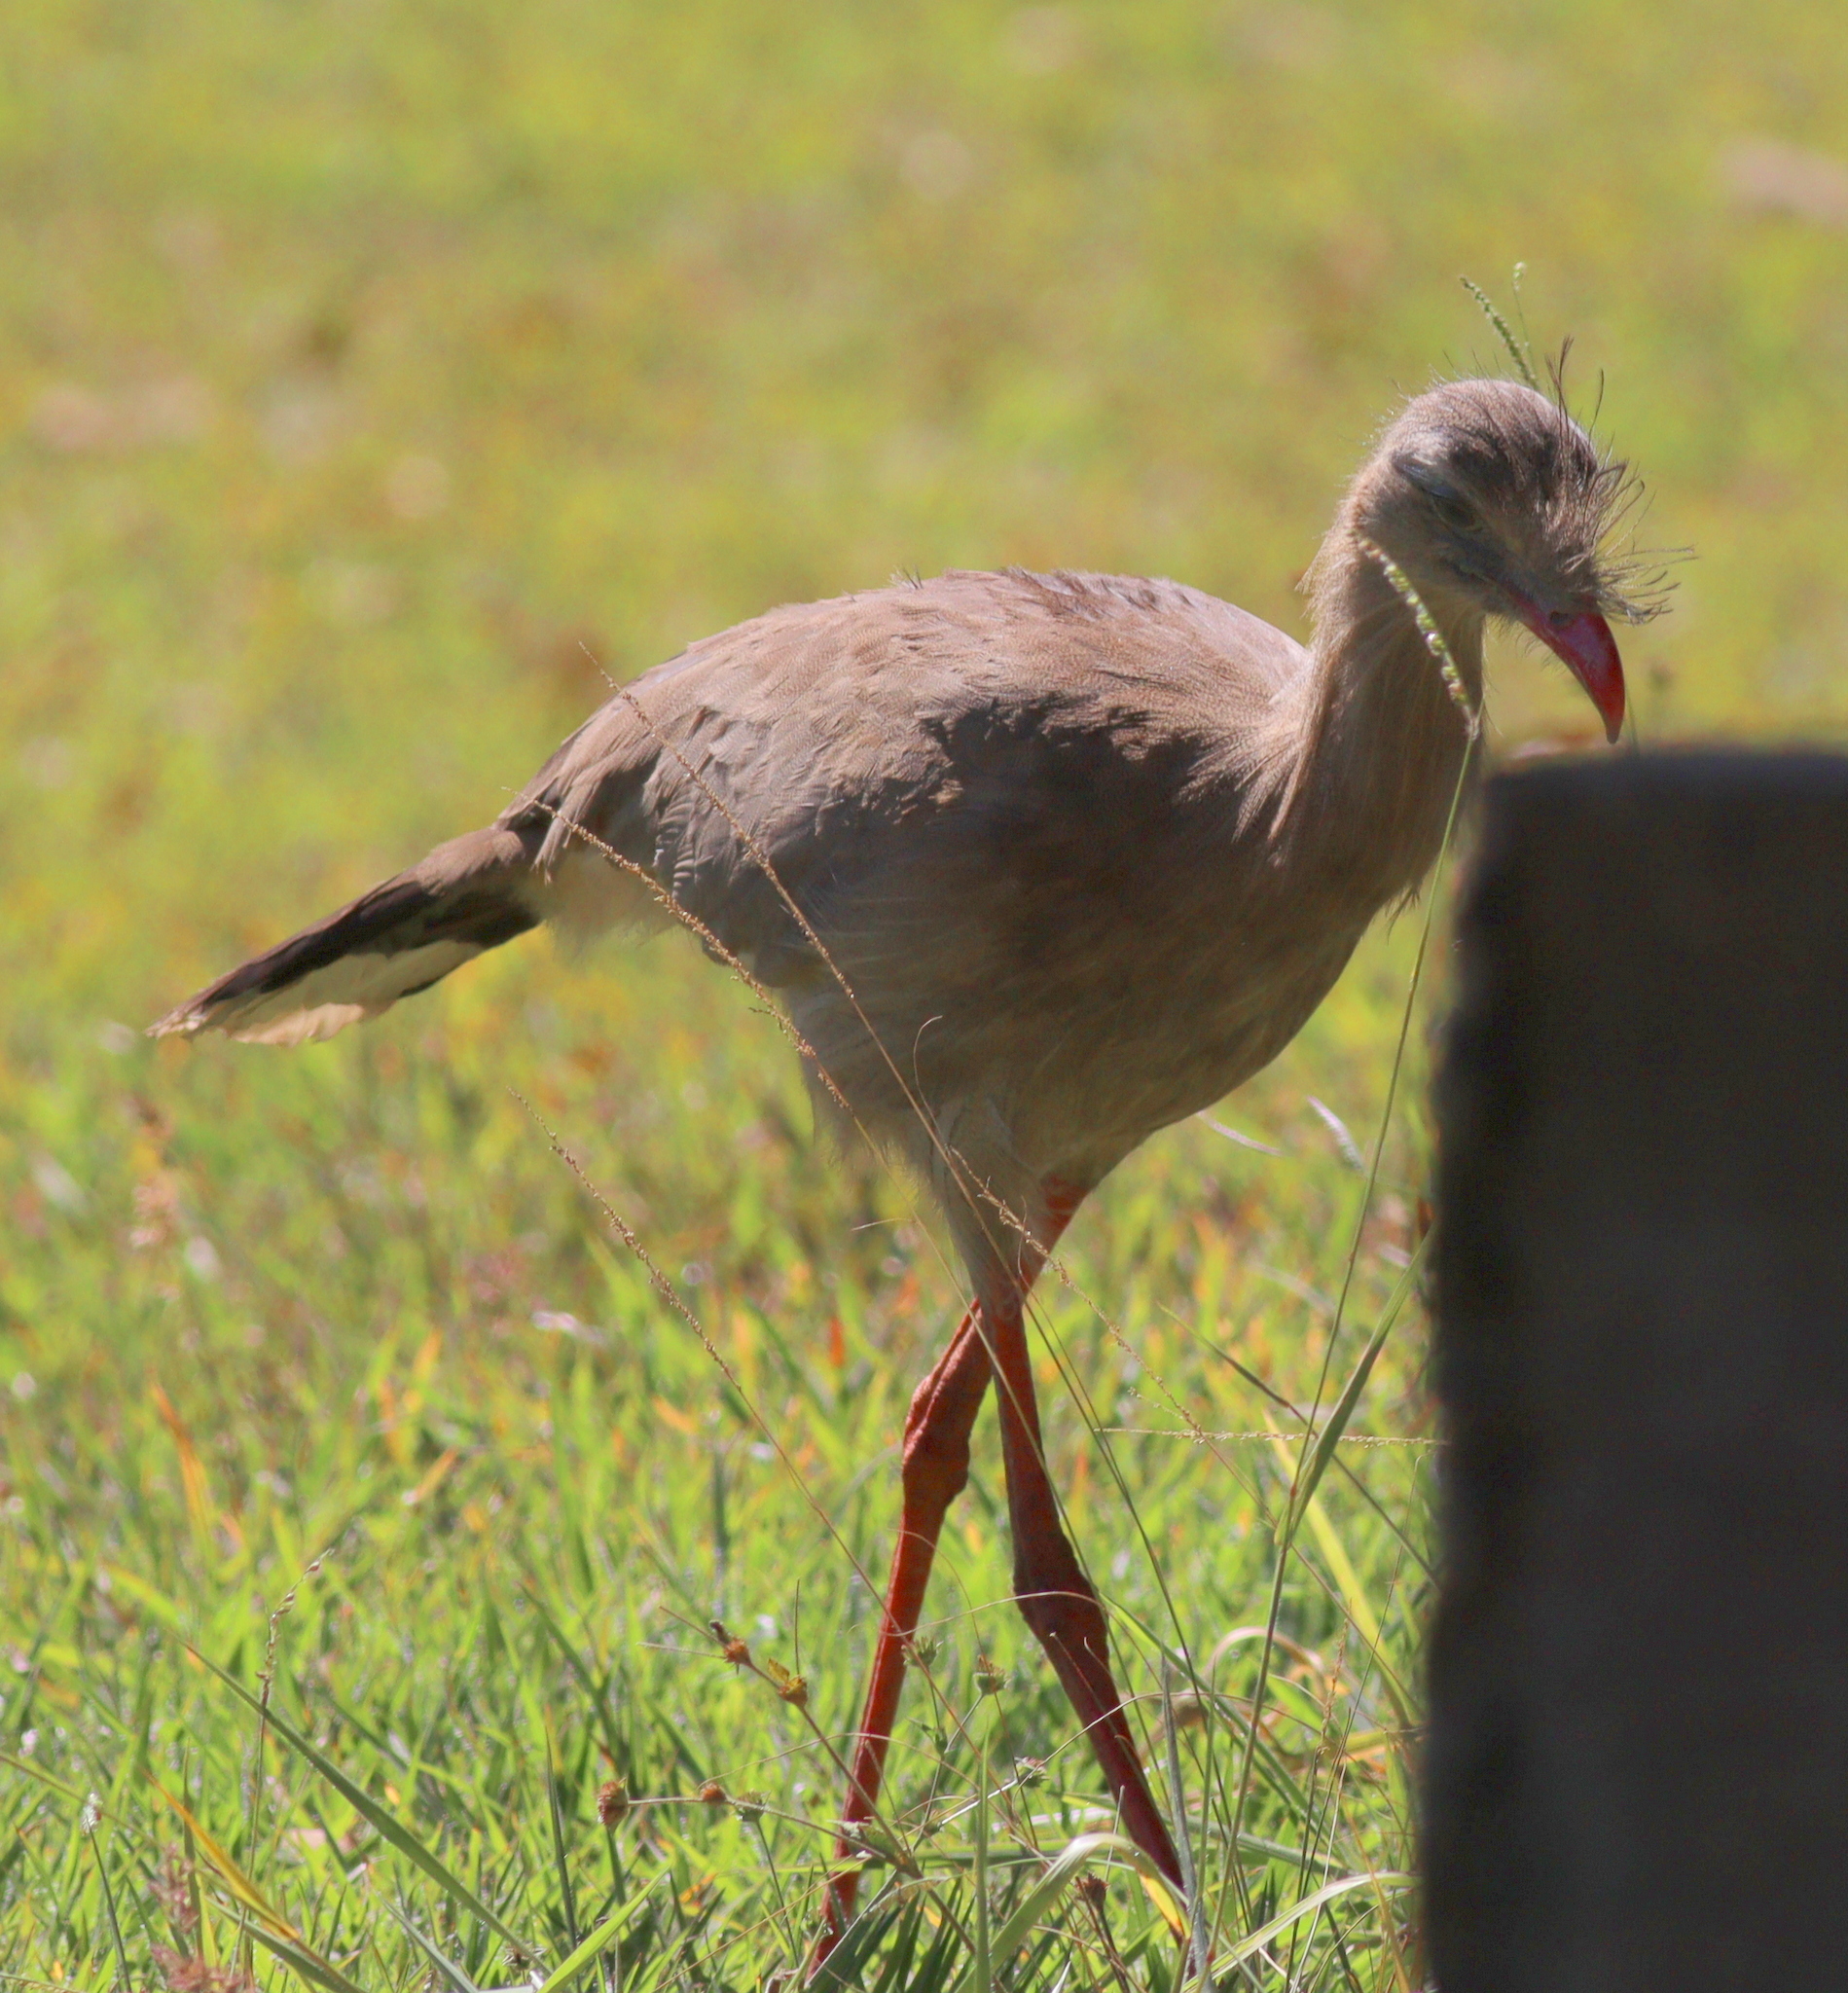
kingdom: Animalia
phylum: Chordata
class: Aves
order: Cariamiformes
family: Cariamidae
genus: Cariama
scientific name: Cariama cristata
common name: Red-legged seriema
